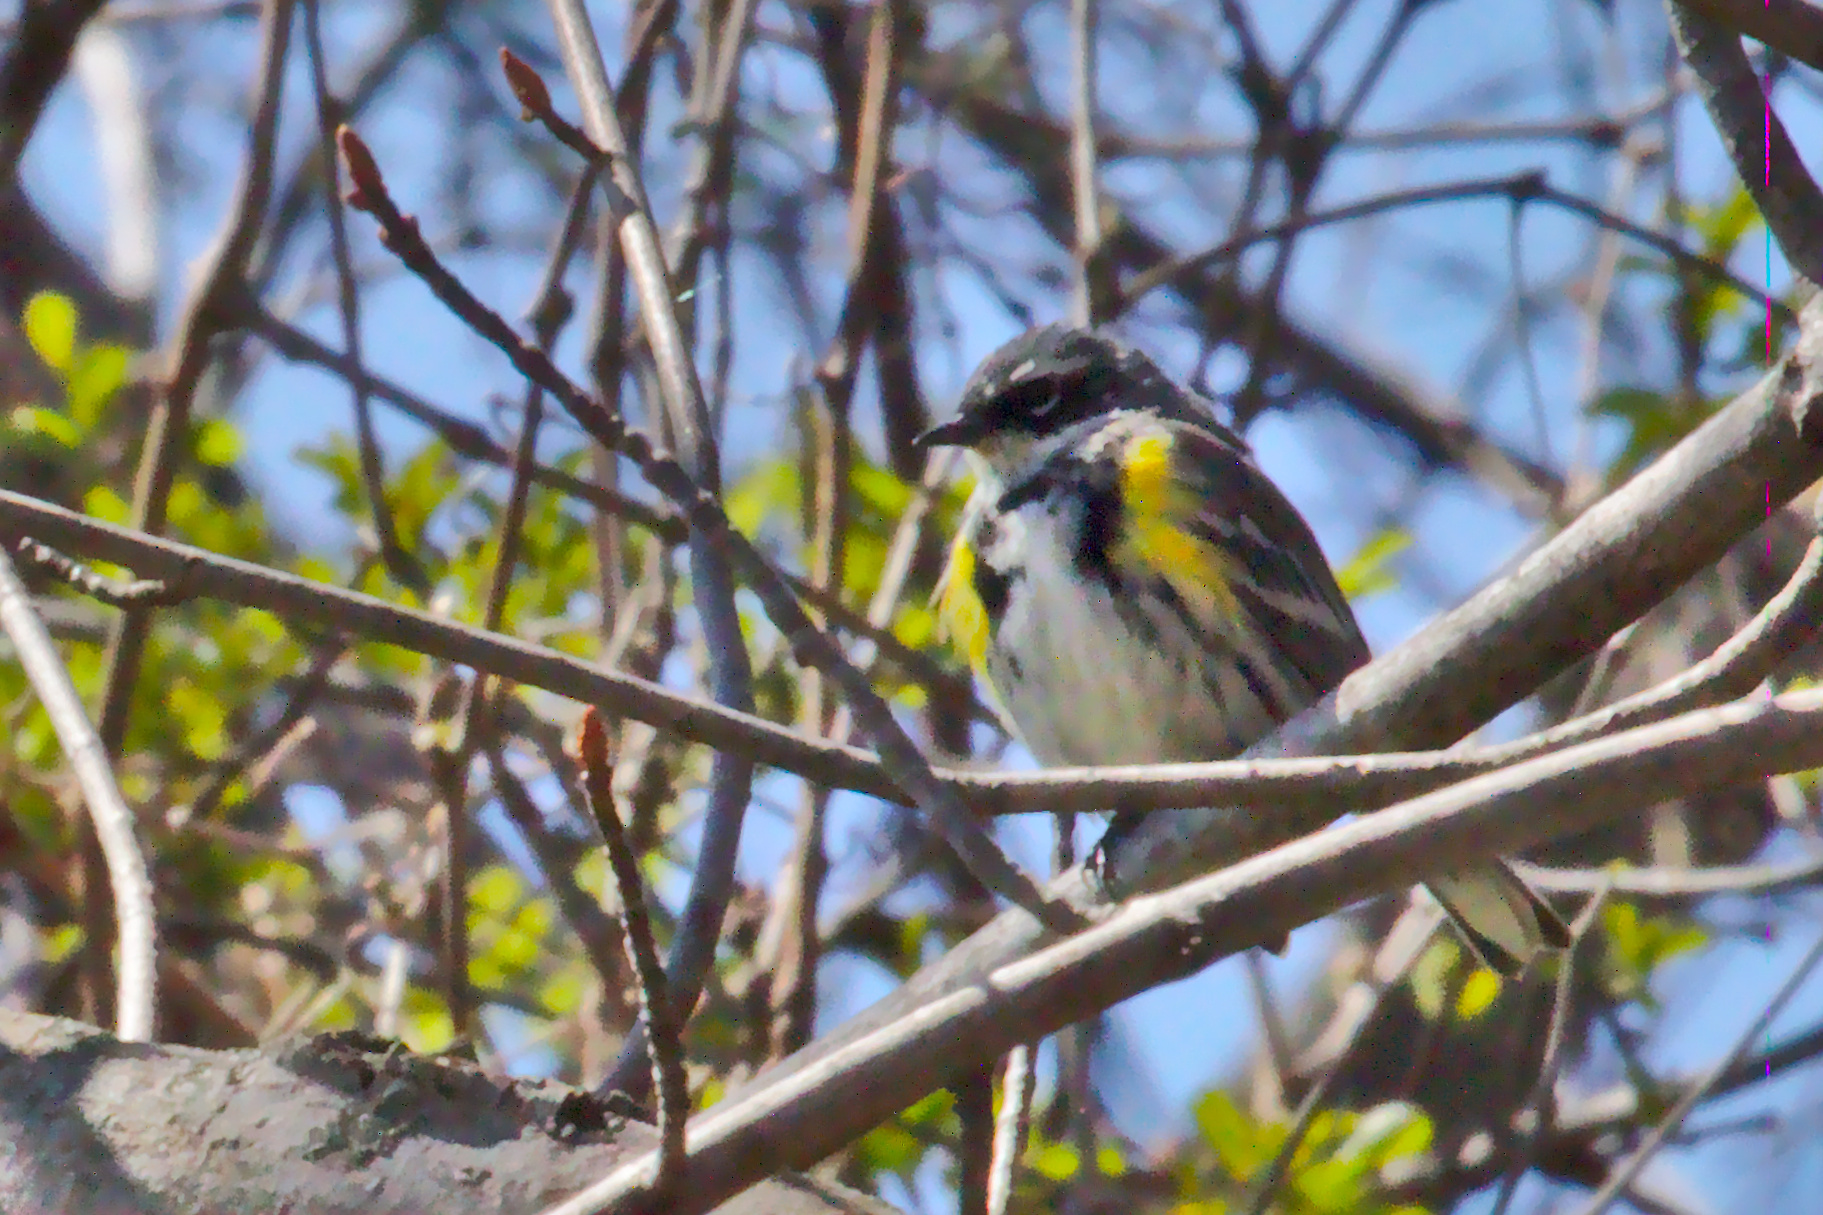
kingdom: Animalia
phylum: Chordata
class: Aves
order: Passeriformes
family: Parulidae
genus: Setophaga
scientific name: Setophaga coronata
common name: Myrtle warbler
